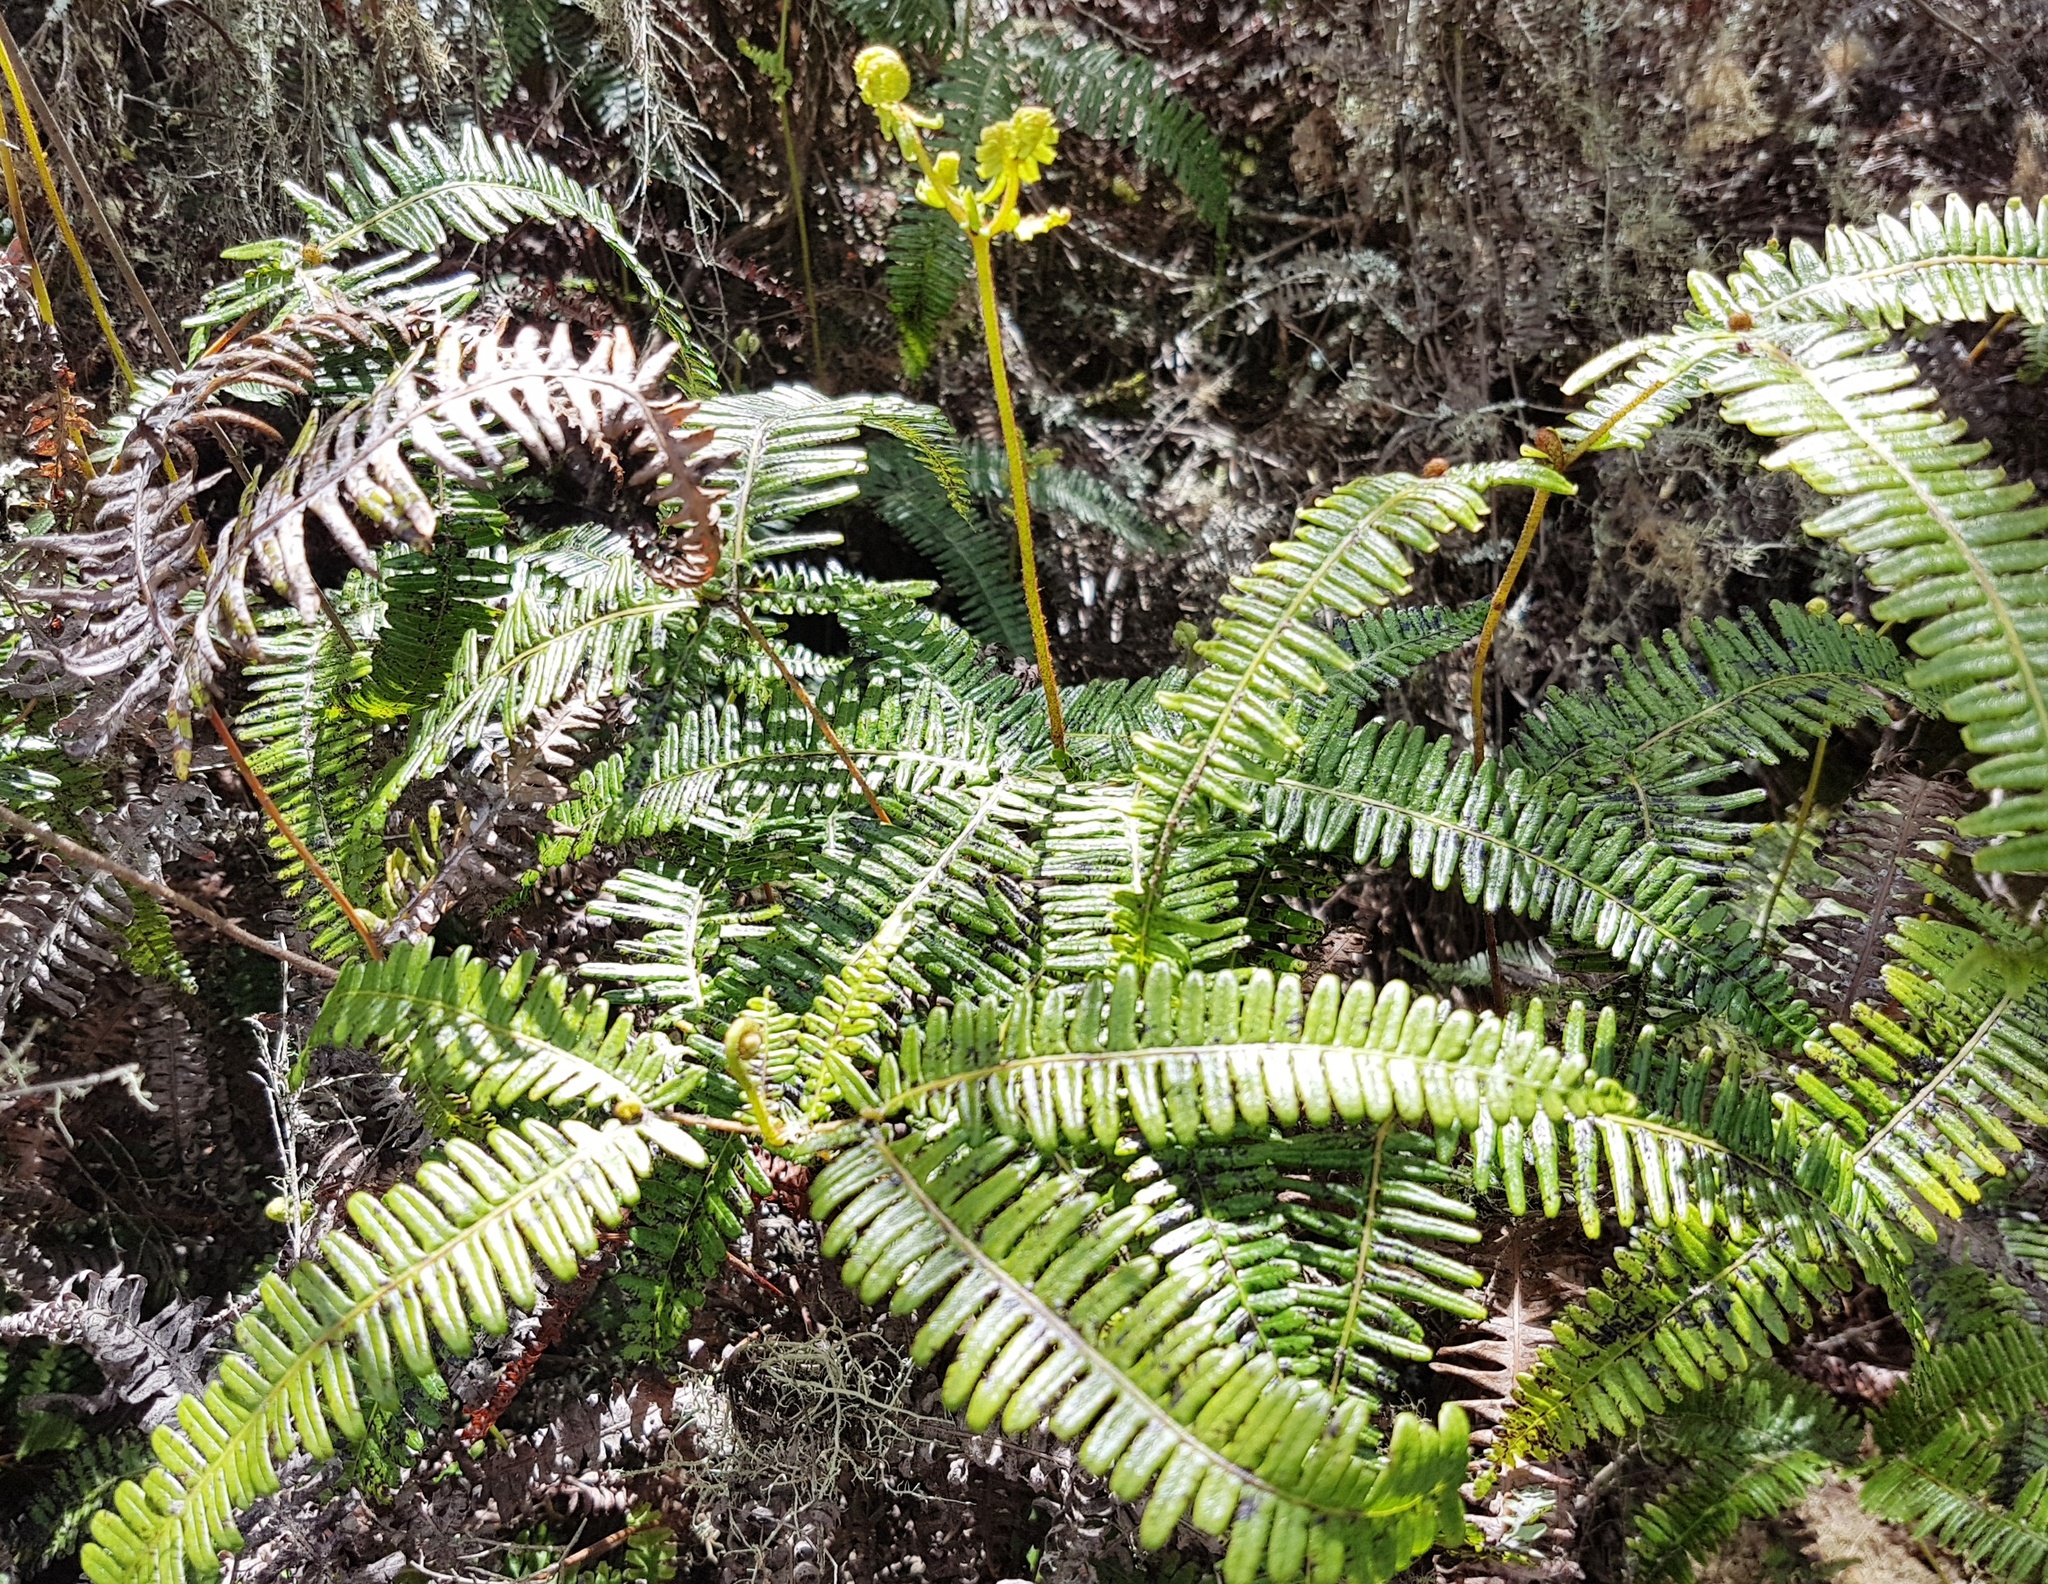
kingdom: Plantae
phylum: Tracheophyta
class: Polypodiopsida
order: Gleicheniales
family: Gleicheniaceae
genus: Dicranopteris
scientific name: Dicranopteris linearis
